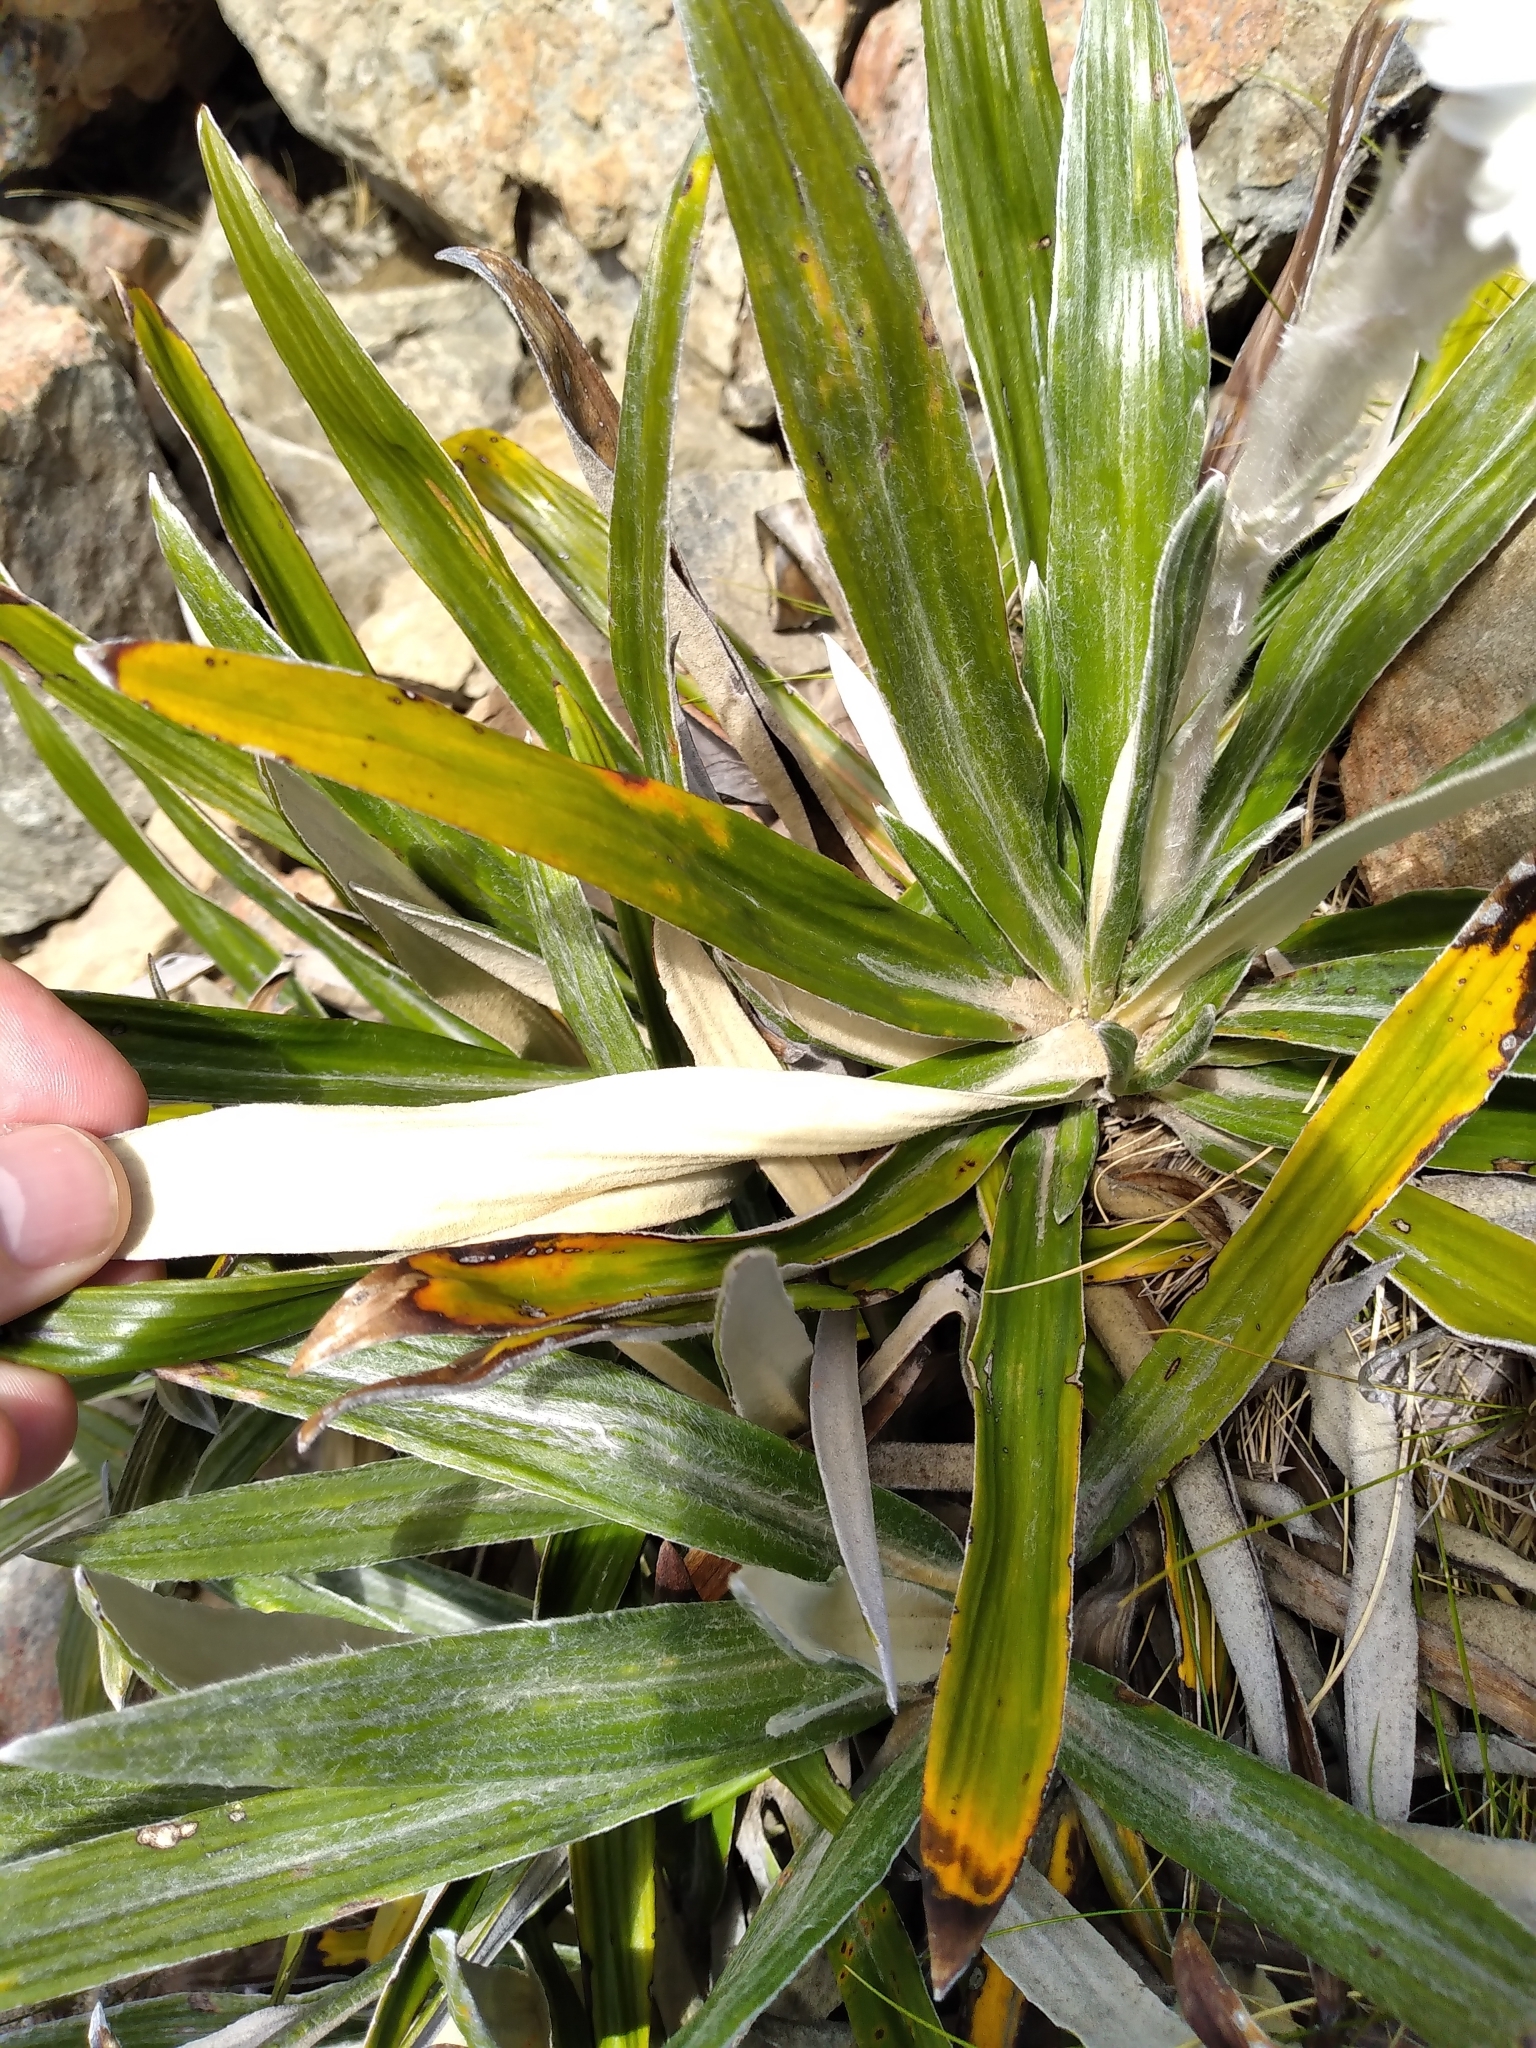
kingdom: Plantae
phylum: Tracheophyta
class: Magnoliopsida
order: Asterales
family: Asteraceae
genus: Celmisia
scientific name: Celmisia spectabilis
